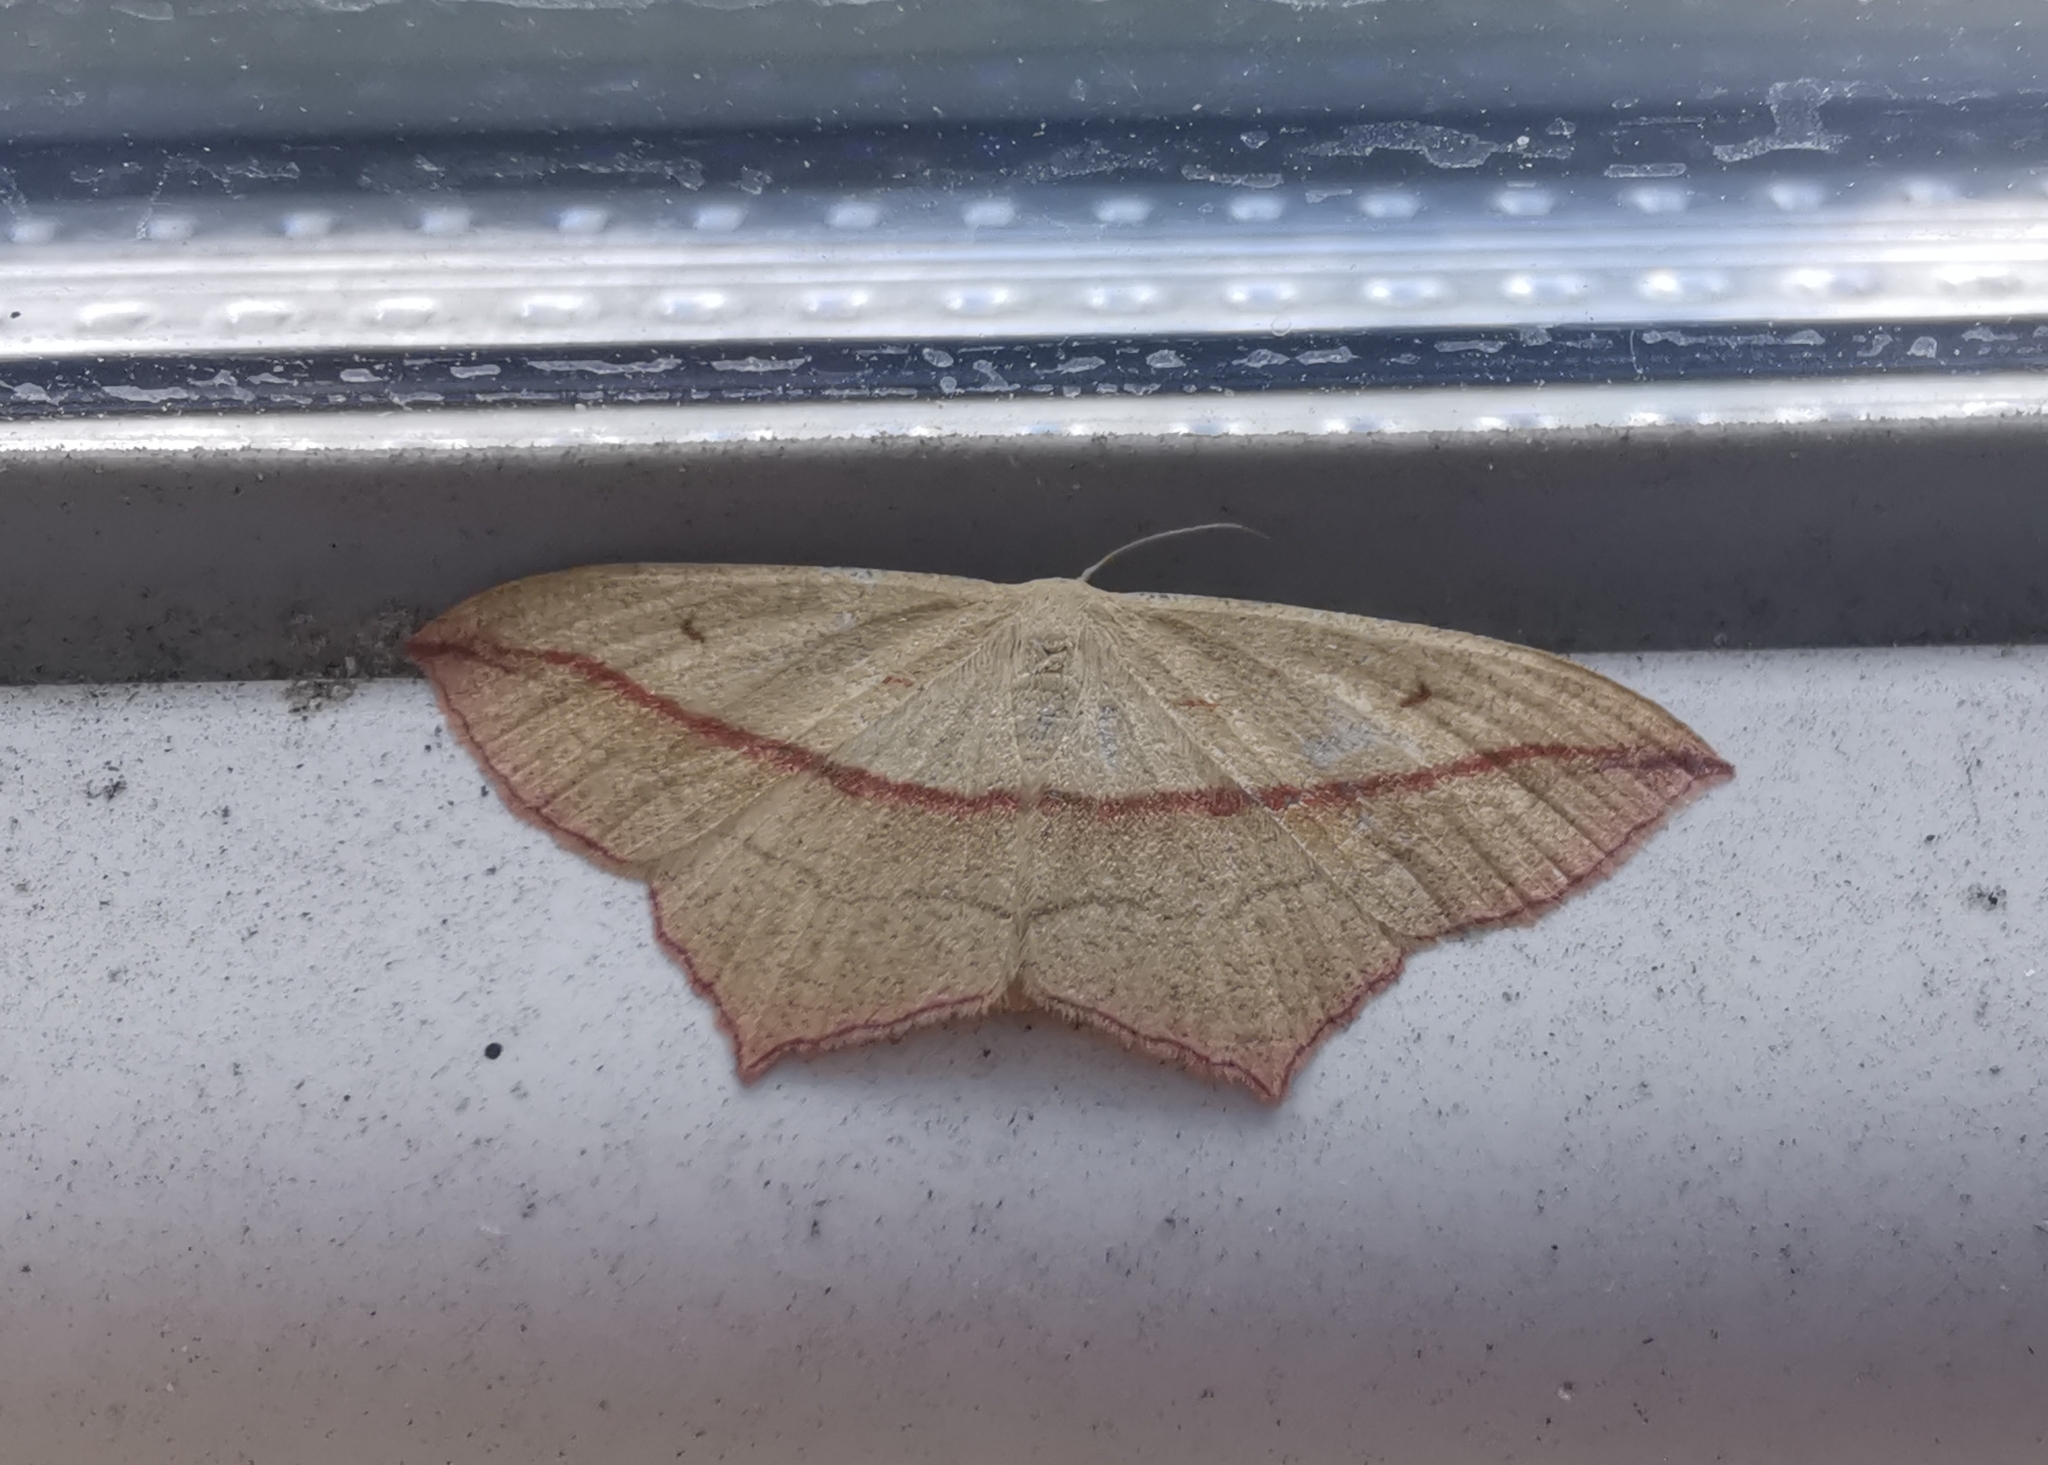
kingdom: Animalia
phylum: Arthropoda
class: Insecta
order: Lepidoptera
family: Geometridae
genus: Timandra
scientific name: Timandra comae
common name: Blood-vein
